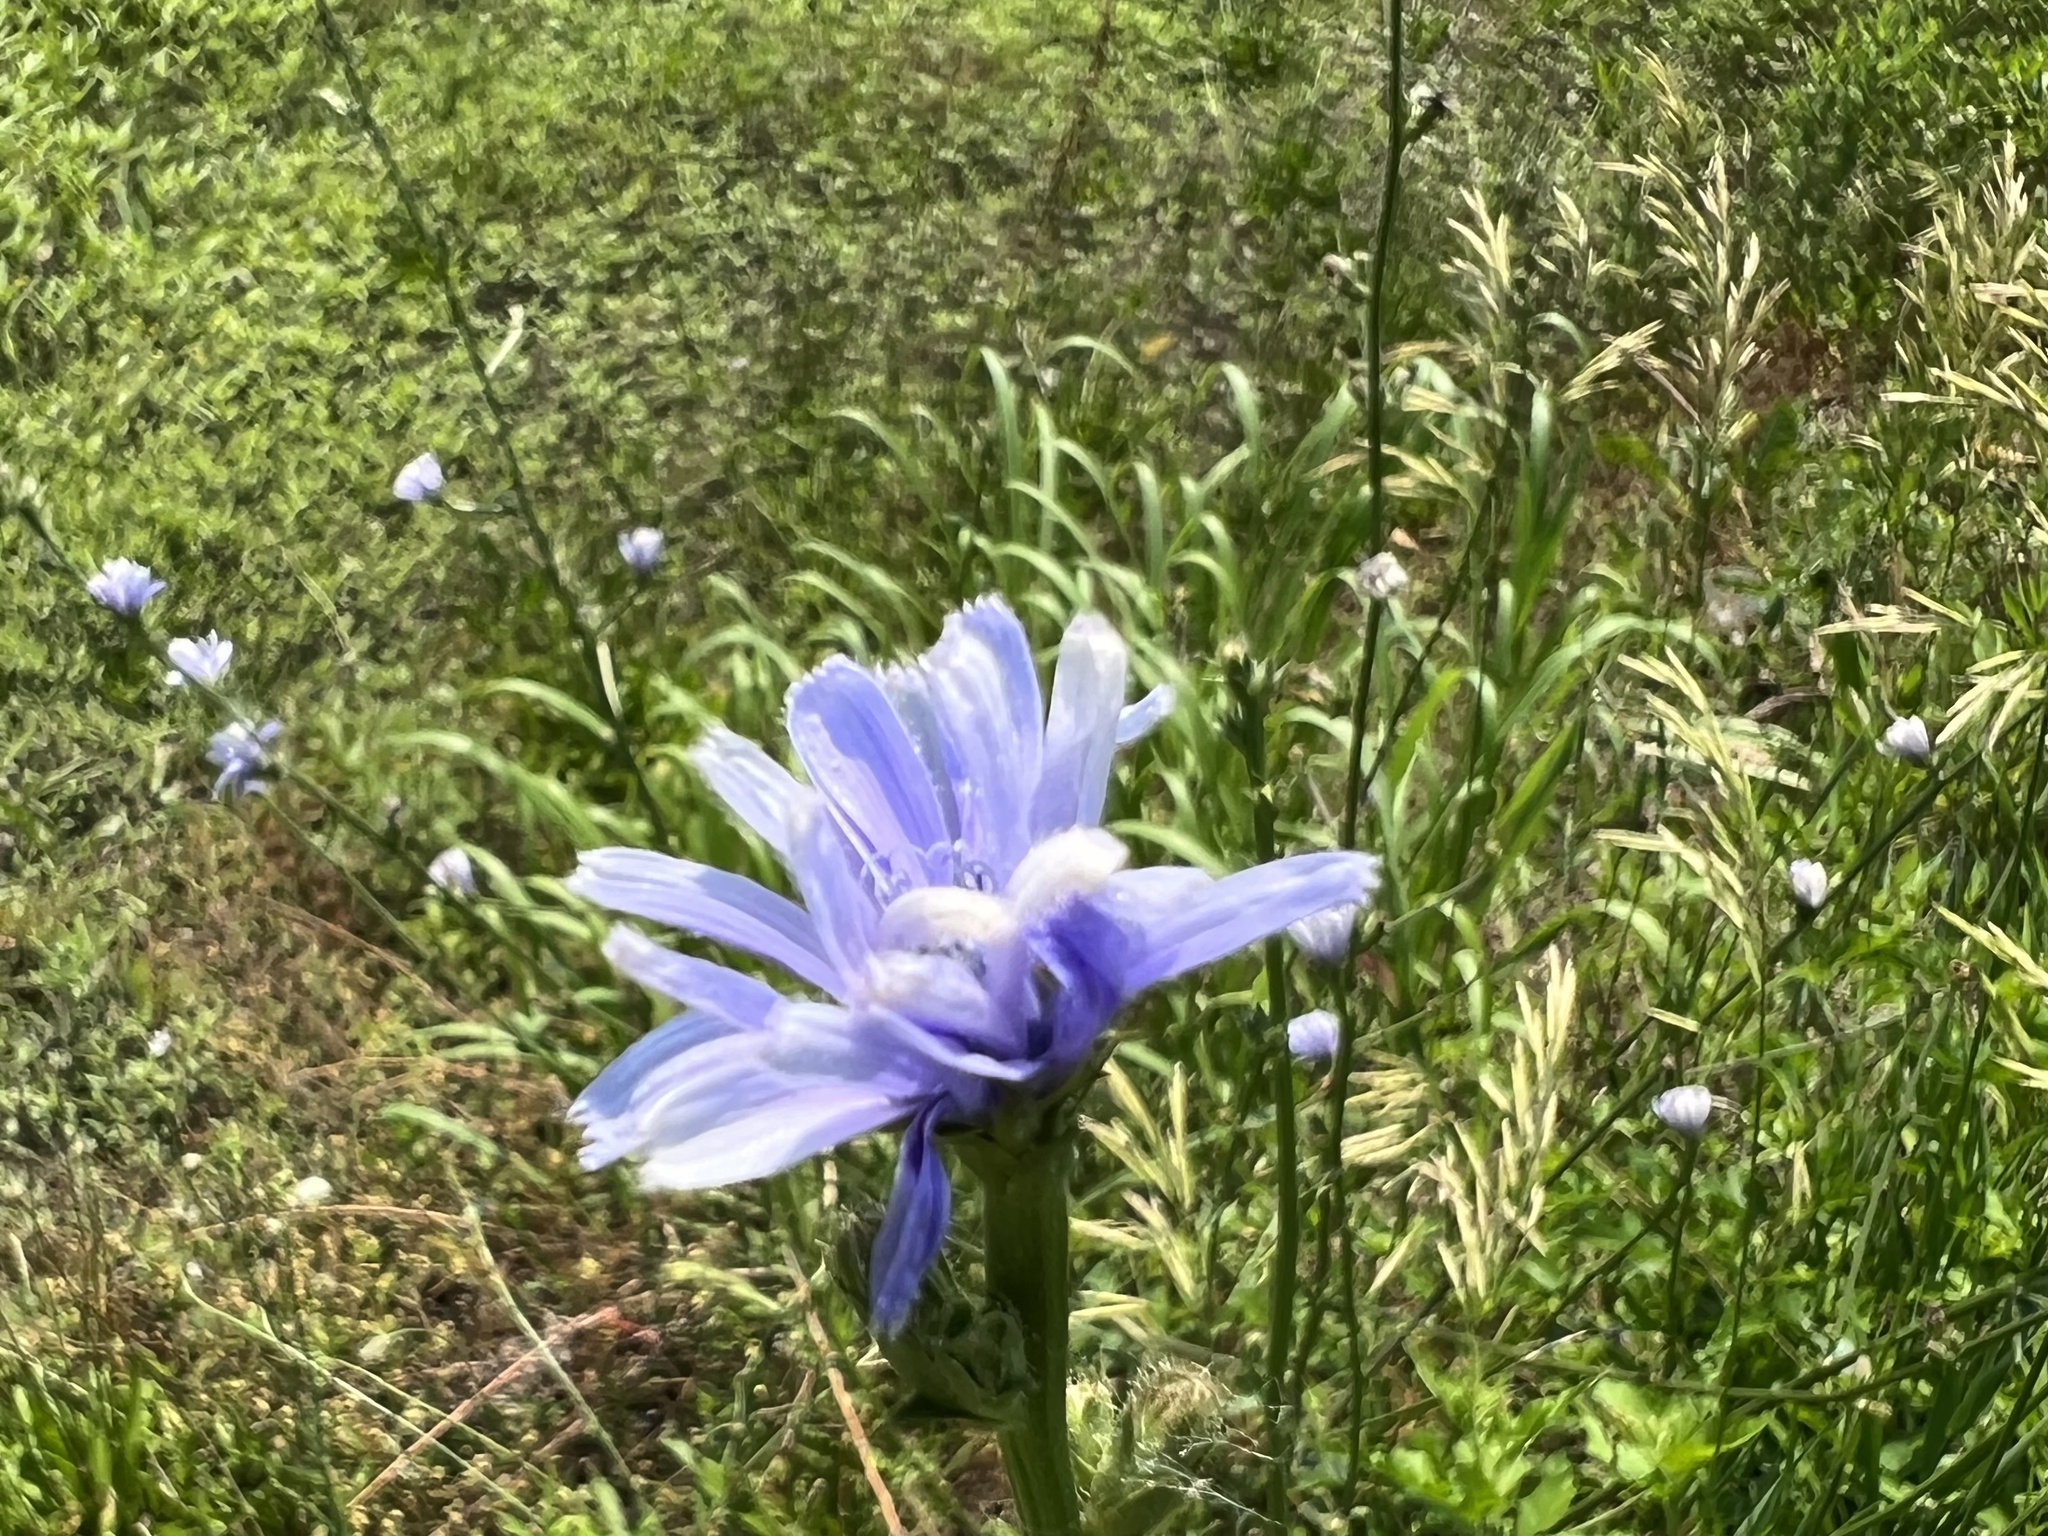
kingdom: Plantae
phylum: Tracheophyta
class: Magnoliopsida
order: Asterales
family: Asteraceae
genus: Cichorium
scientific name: Cichorium intybus
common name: Chicory
